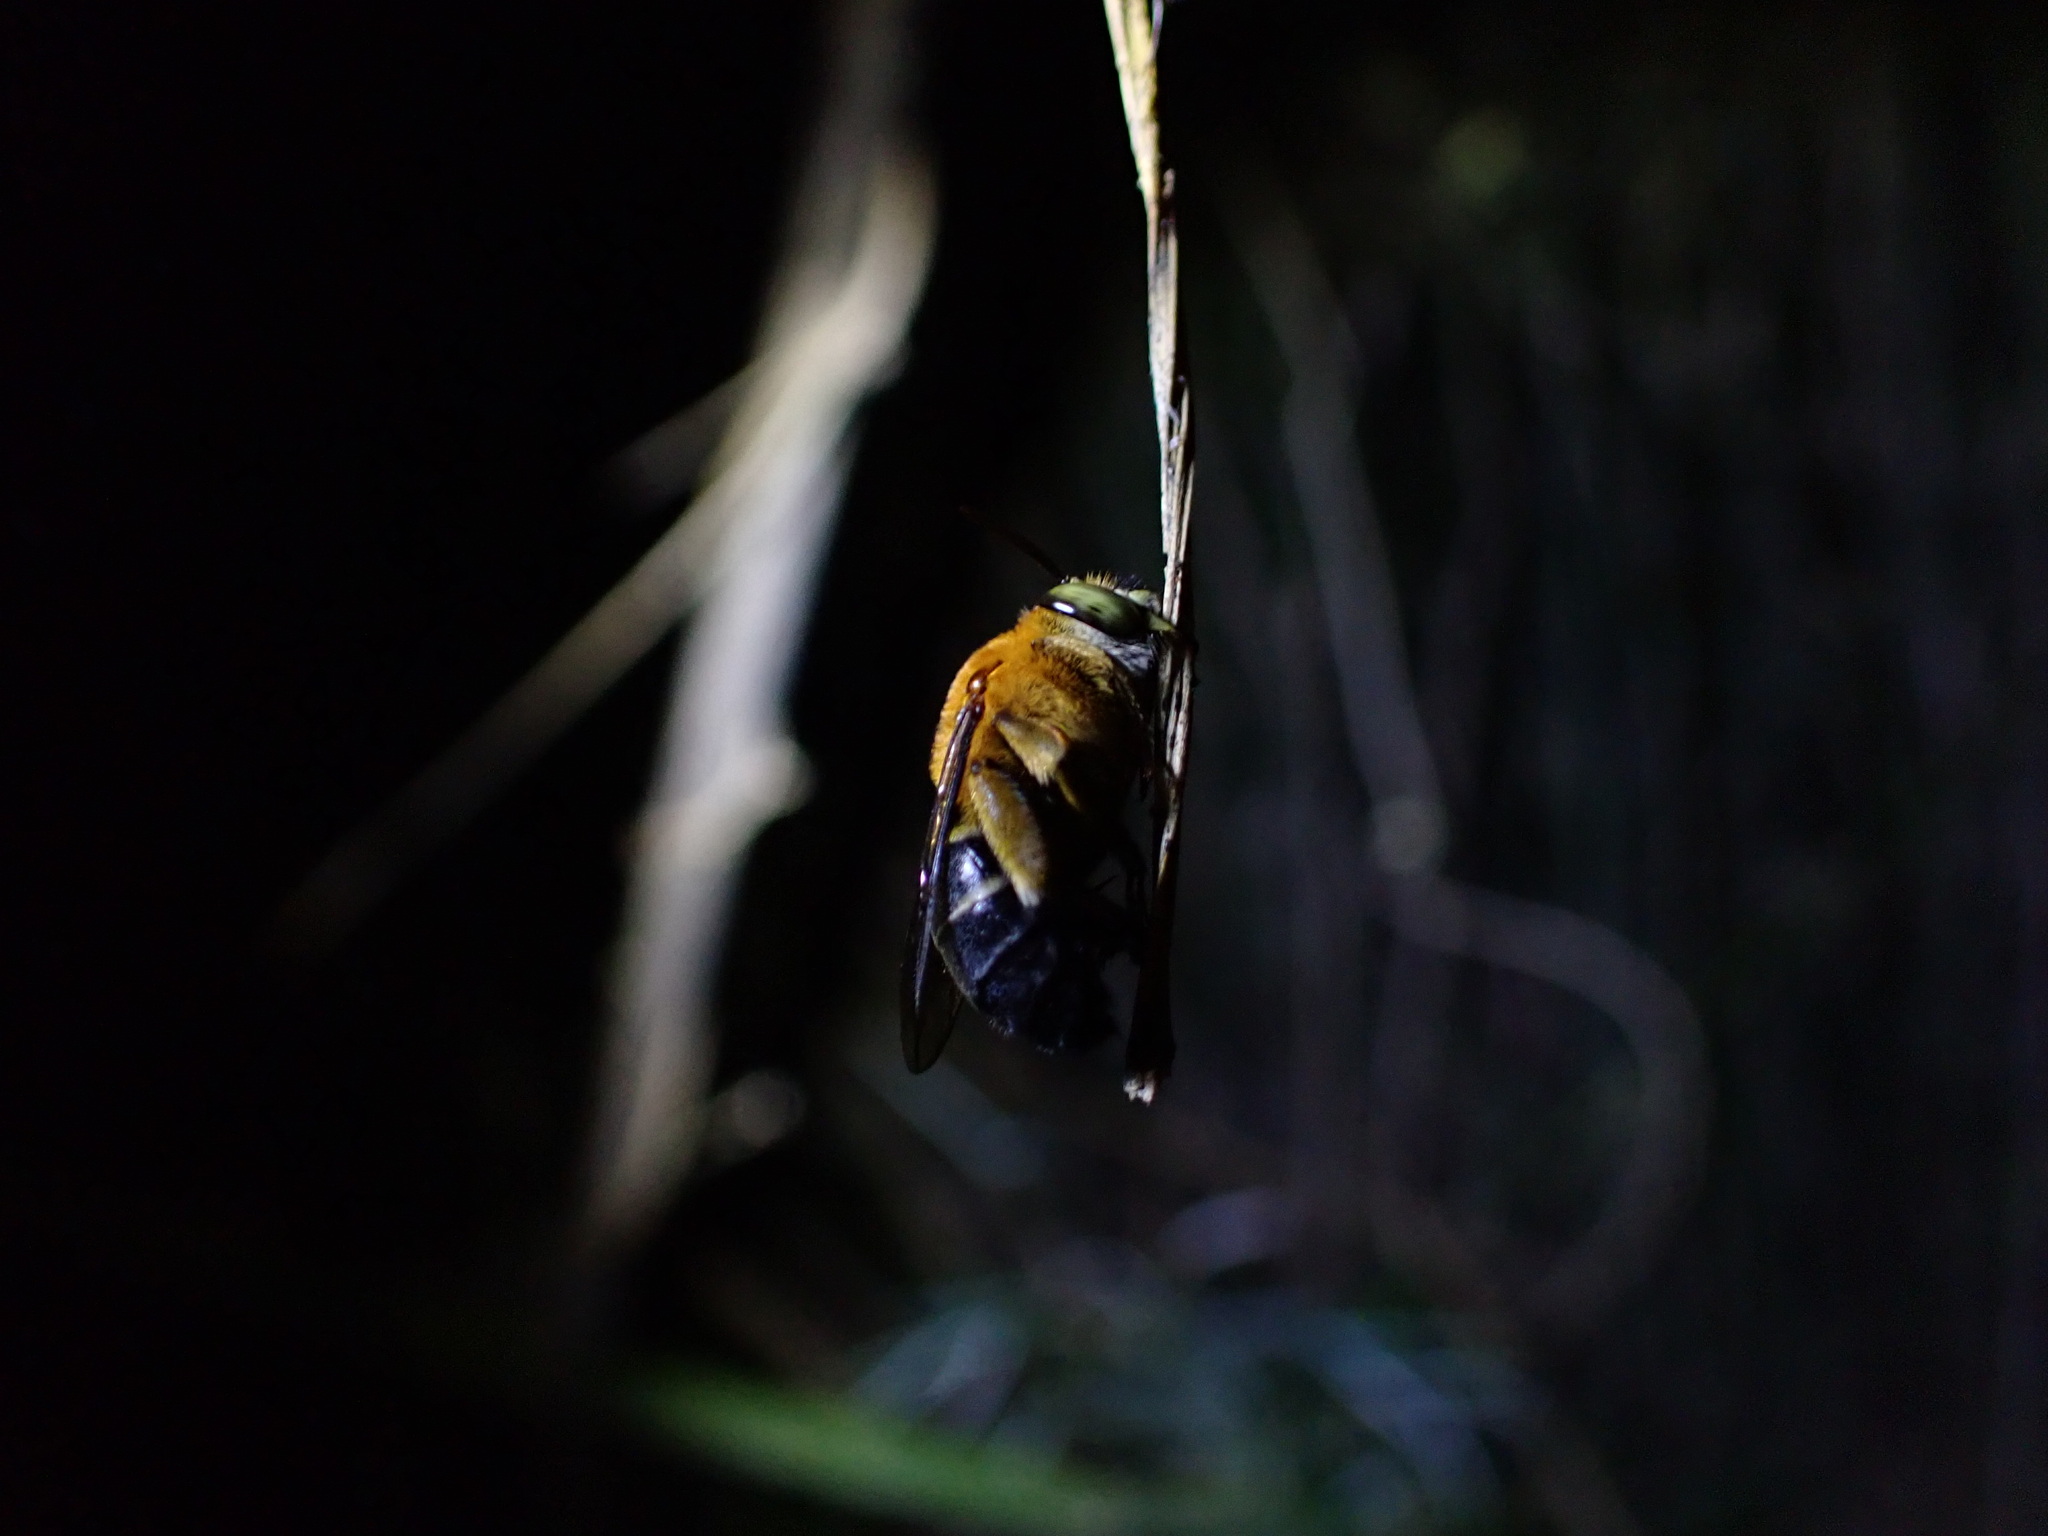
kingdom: Animalia
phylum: Arthropoda
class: Insecta
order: Hymenoptera
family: Apidae
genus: Amegilla
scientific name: Amegilla urens
